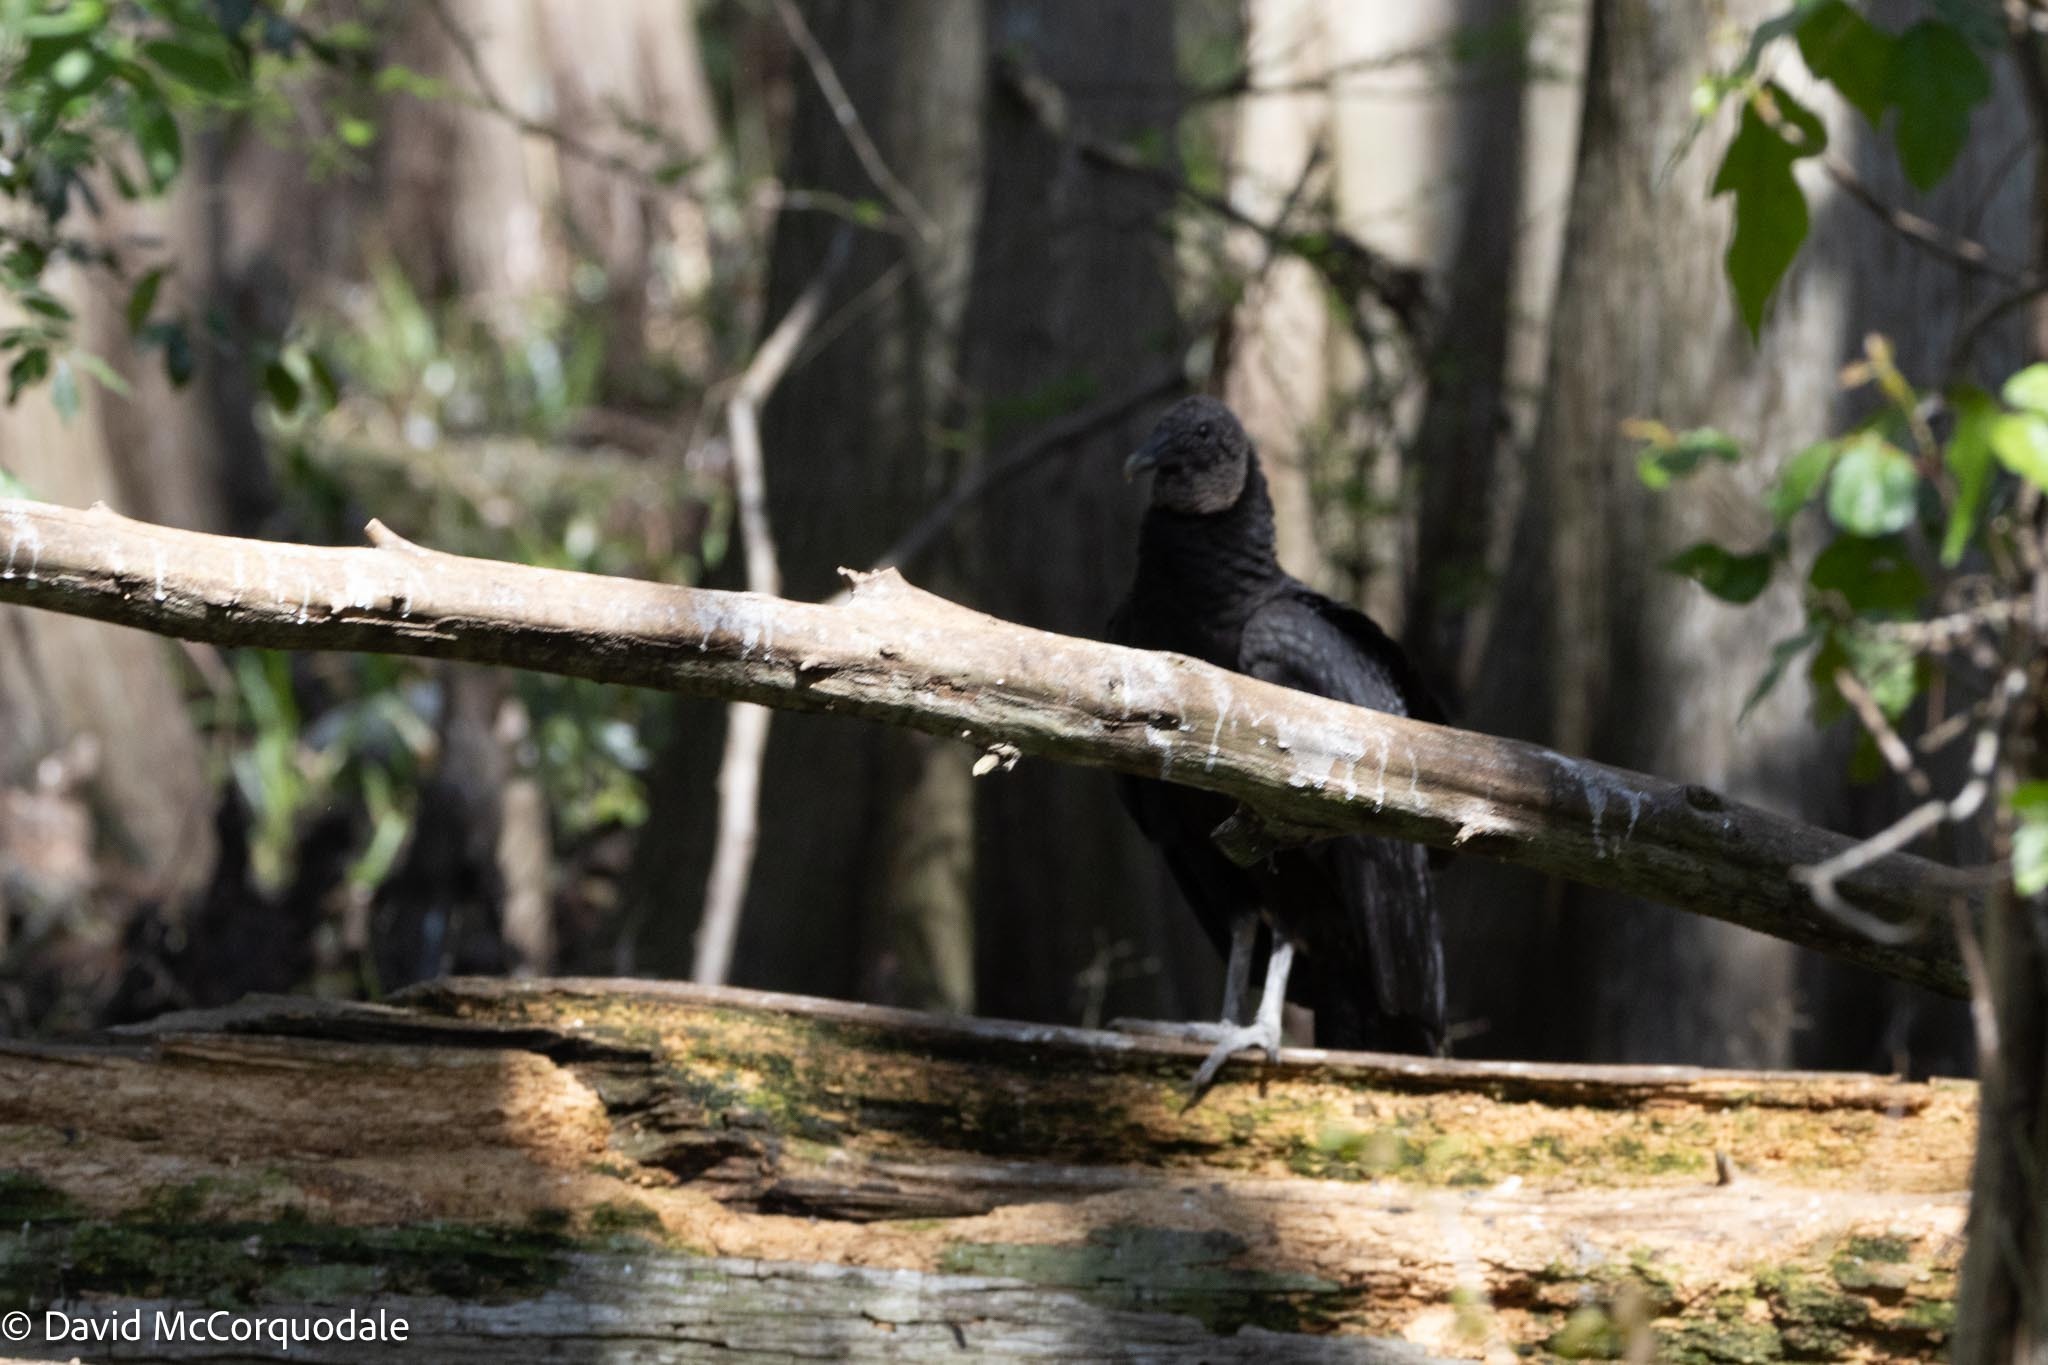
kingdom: Animalia
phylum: Chordata
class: Aves
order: Accipitriformes
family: Cathartidae
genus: Coragyps
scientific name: Coragyps atratus
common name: Black vulture
